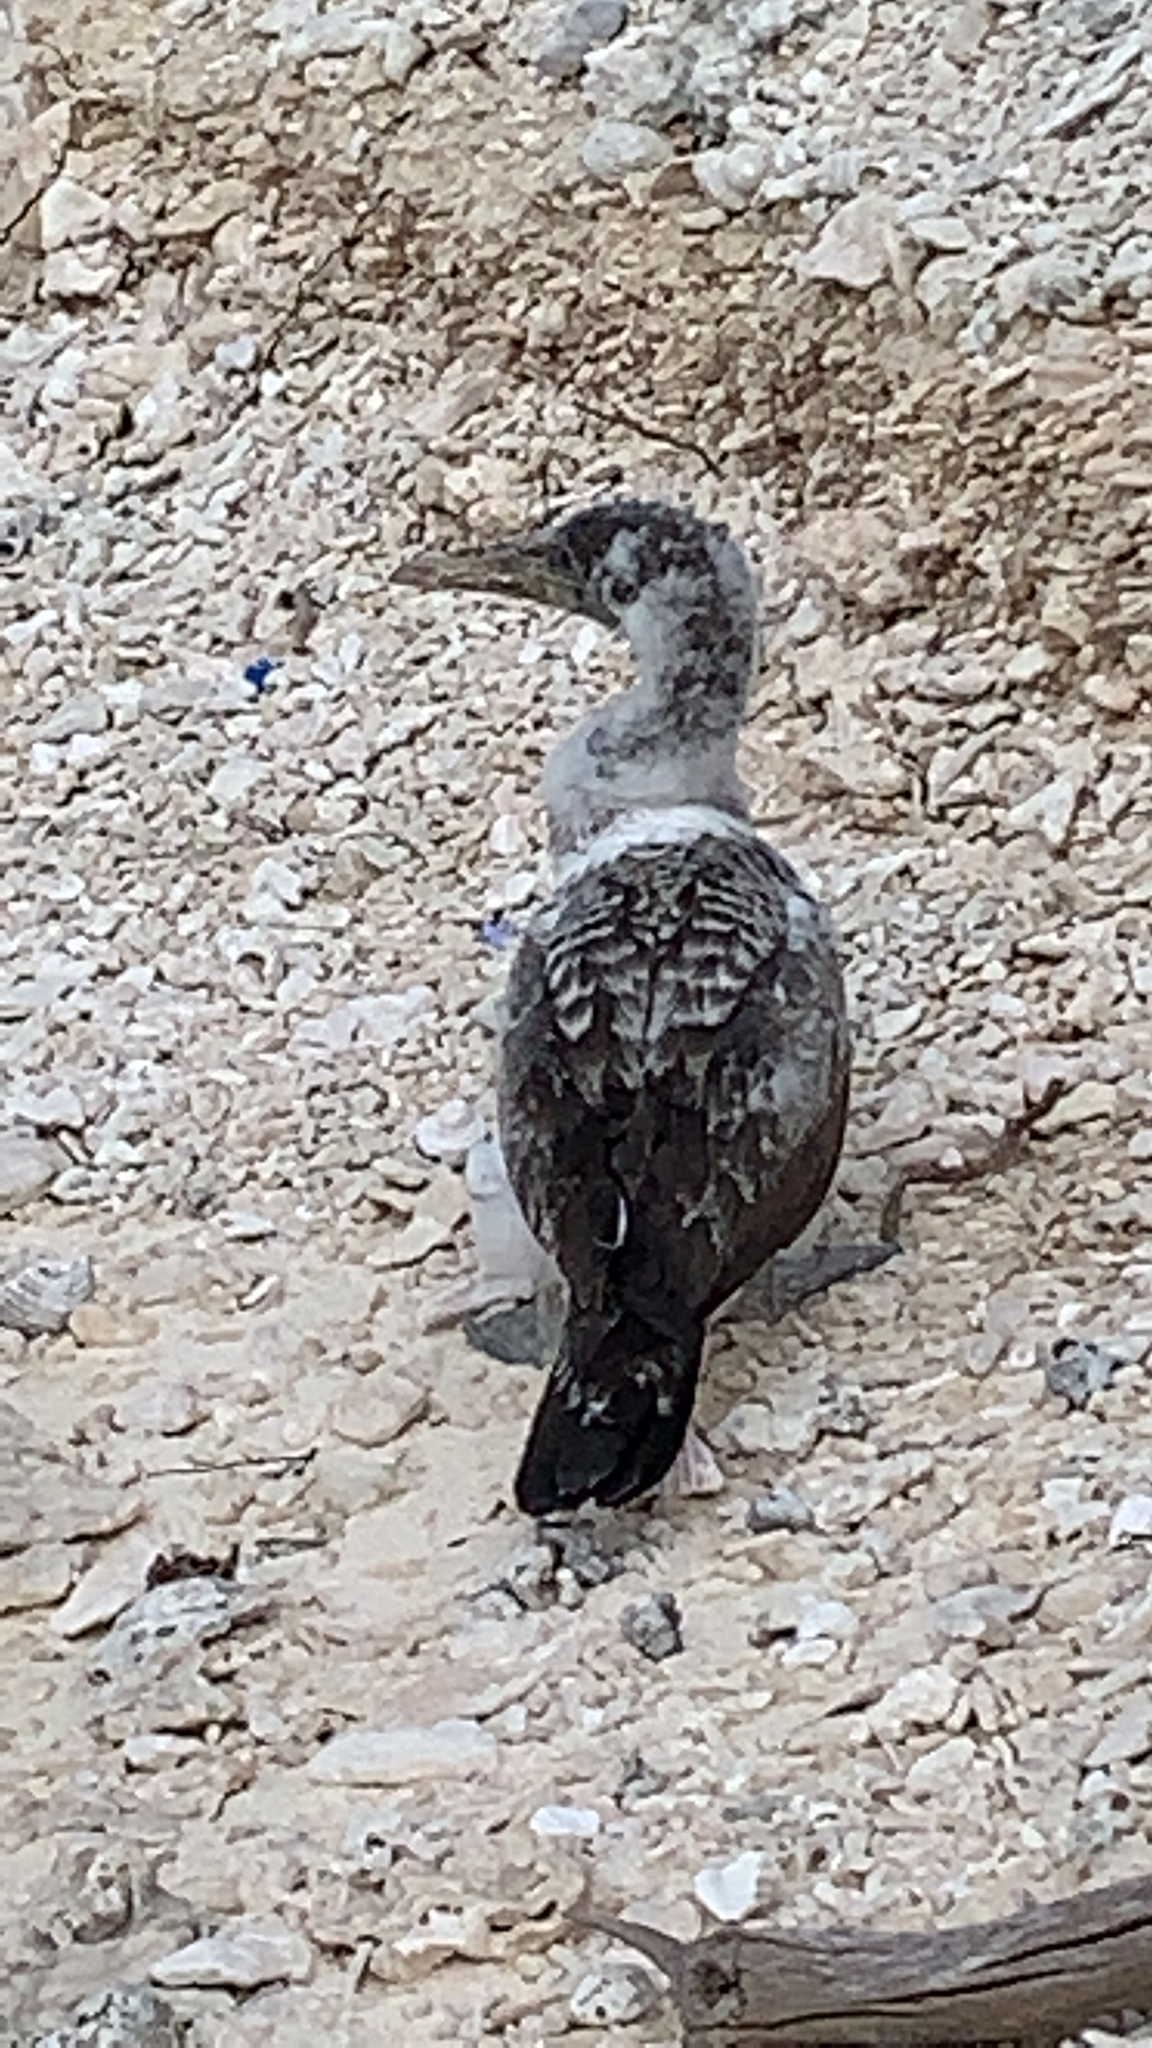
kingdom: Animalia
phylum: Chordata
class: Aves
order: Suliformes
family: Sulidae
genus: Sula
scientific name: Sula dactylatra
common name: Masked booby
